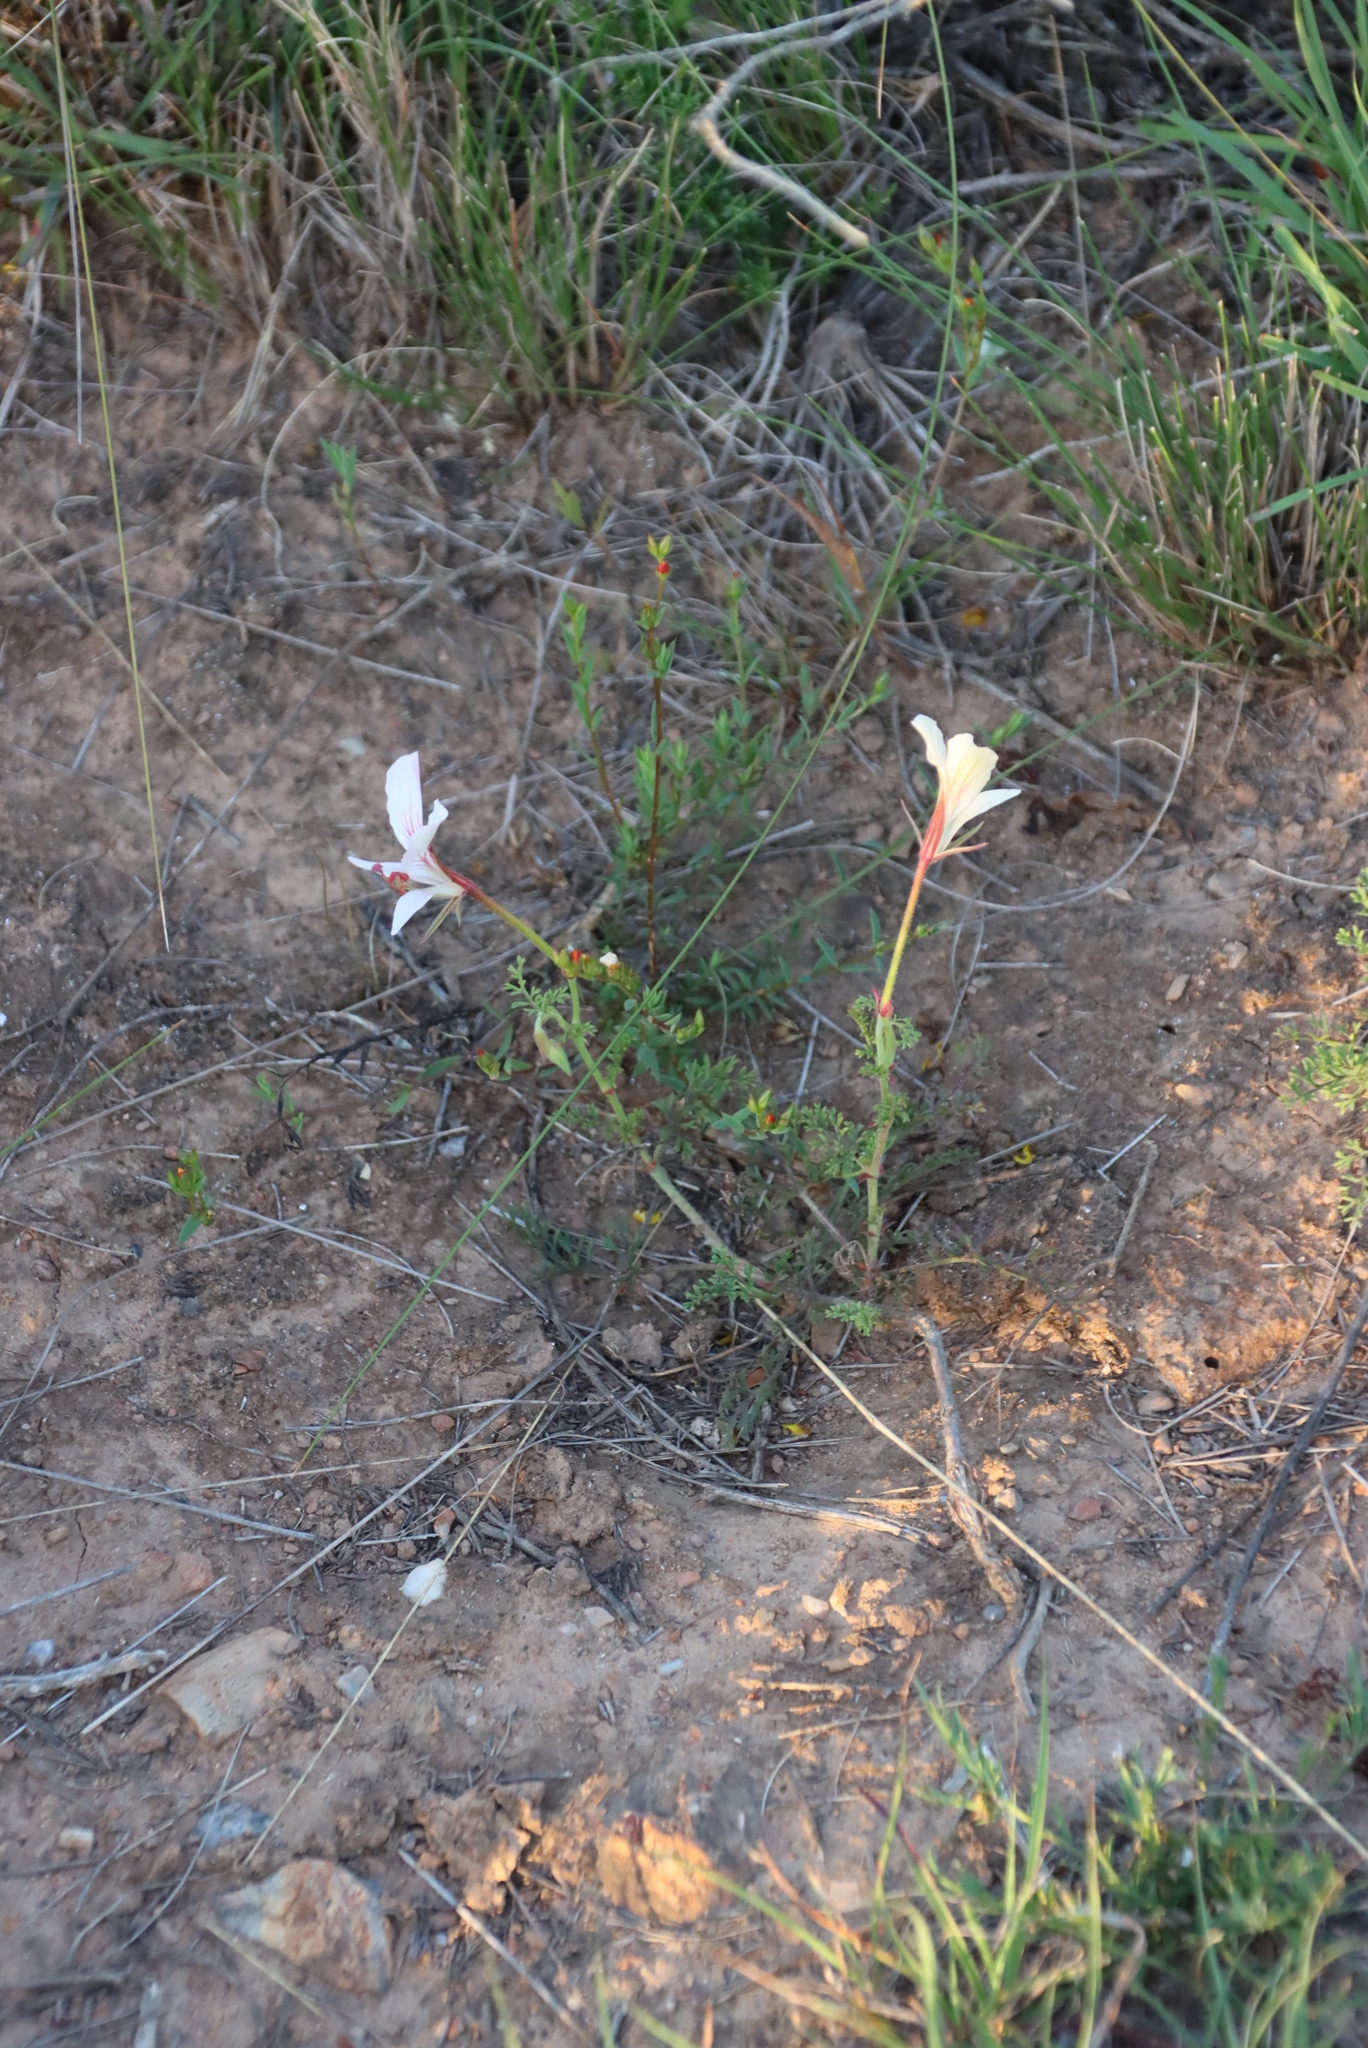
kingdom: Plantae
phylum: Tracheophyta
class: Magnoliopsida
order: Geraniales
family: Geraniaceae
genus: Pelargonium
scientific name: Pelargonium caucalifolium
